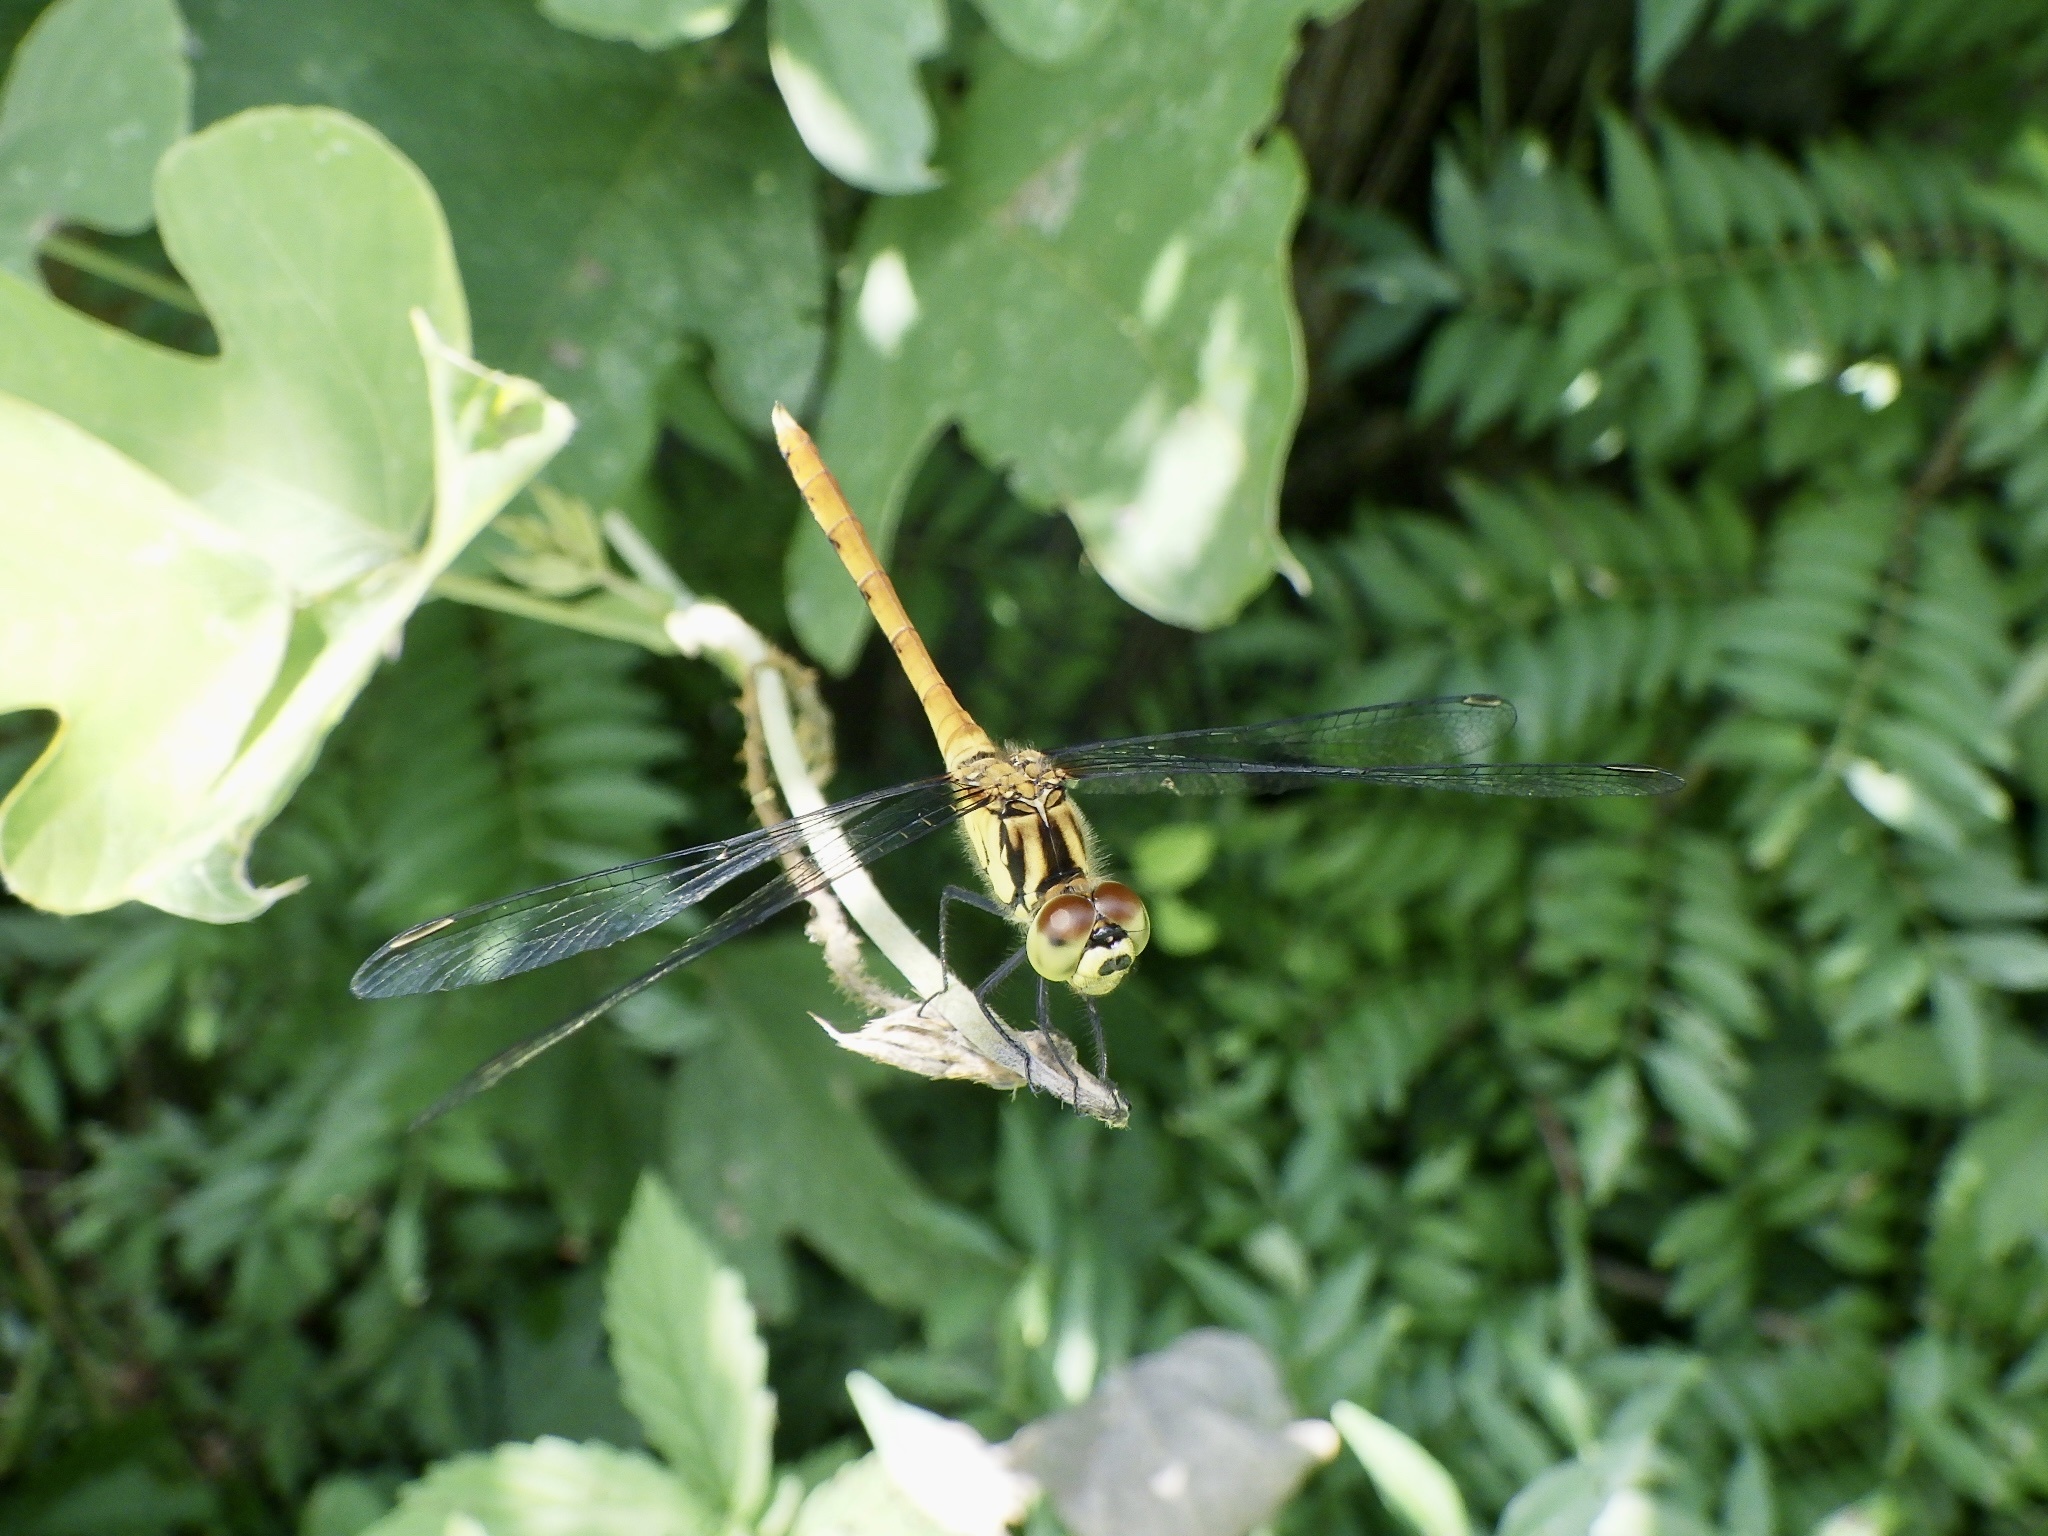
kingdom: Animalia
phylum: Arthropoda
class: Insecta
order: Odonata
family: Libellulidae
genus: Sympetrum
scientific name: Sympetrum eroticum
